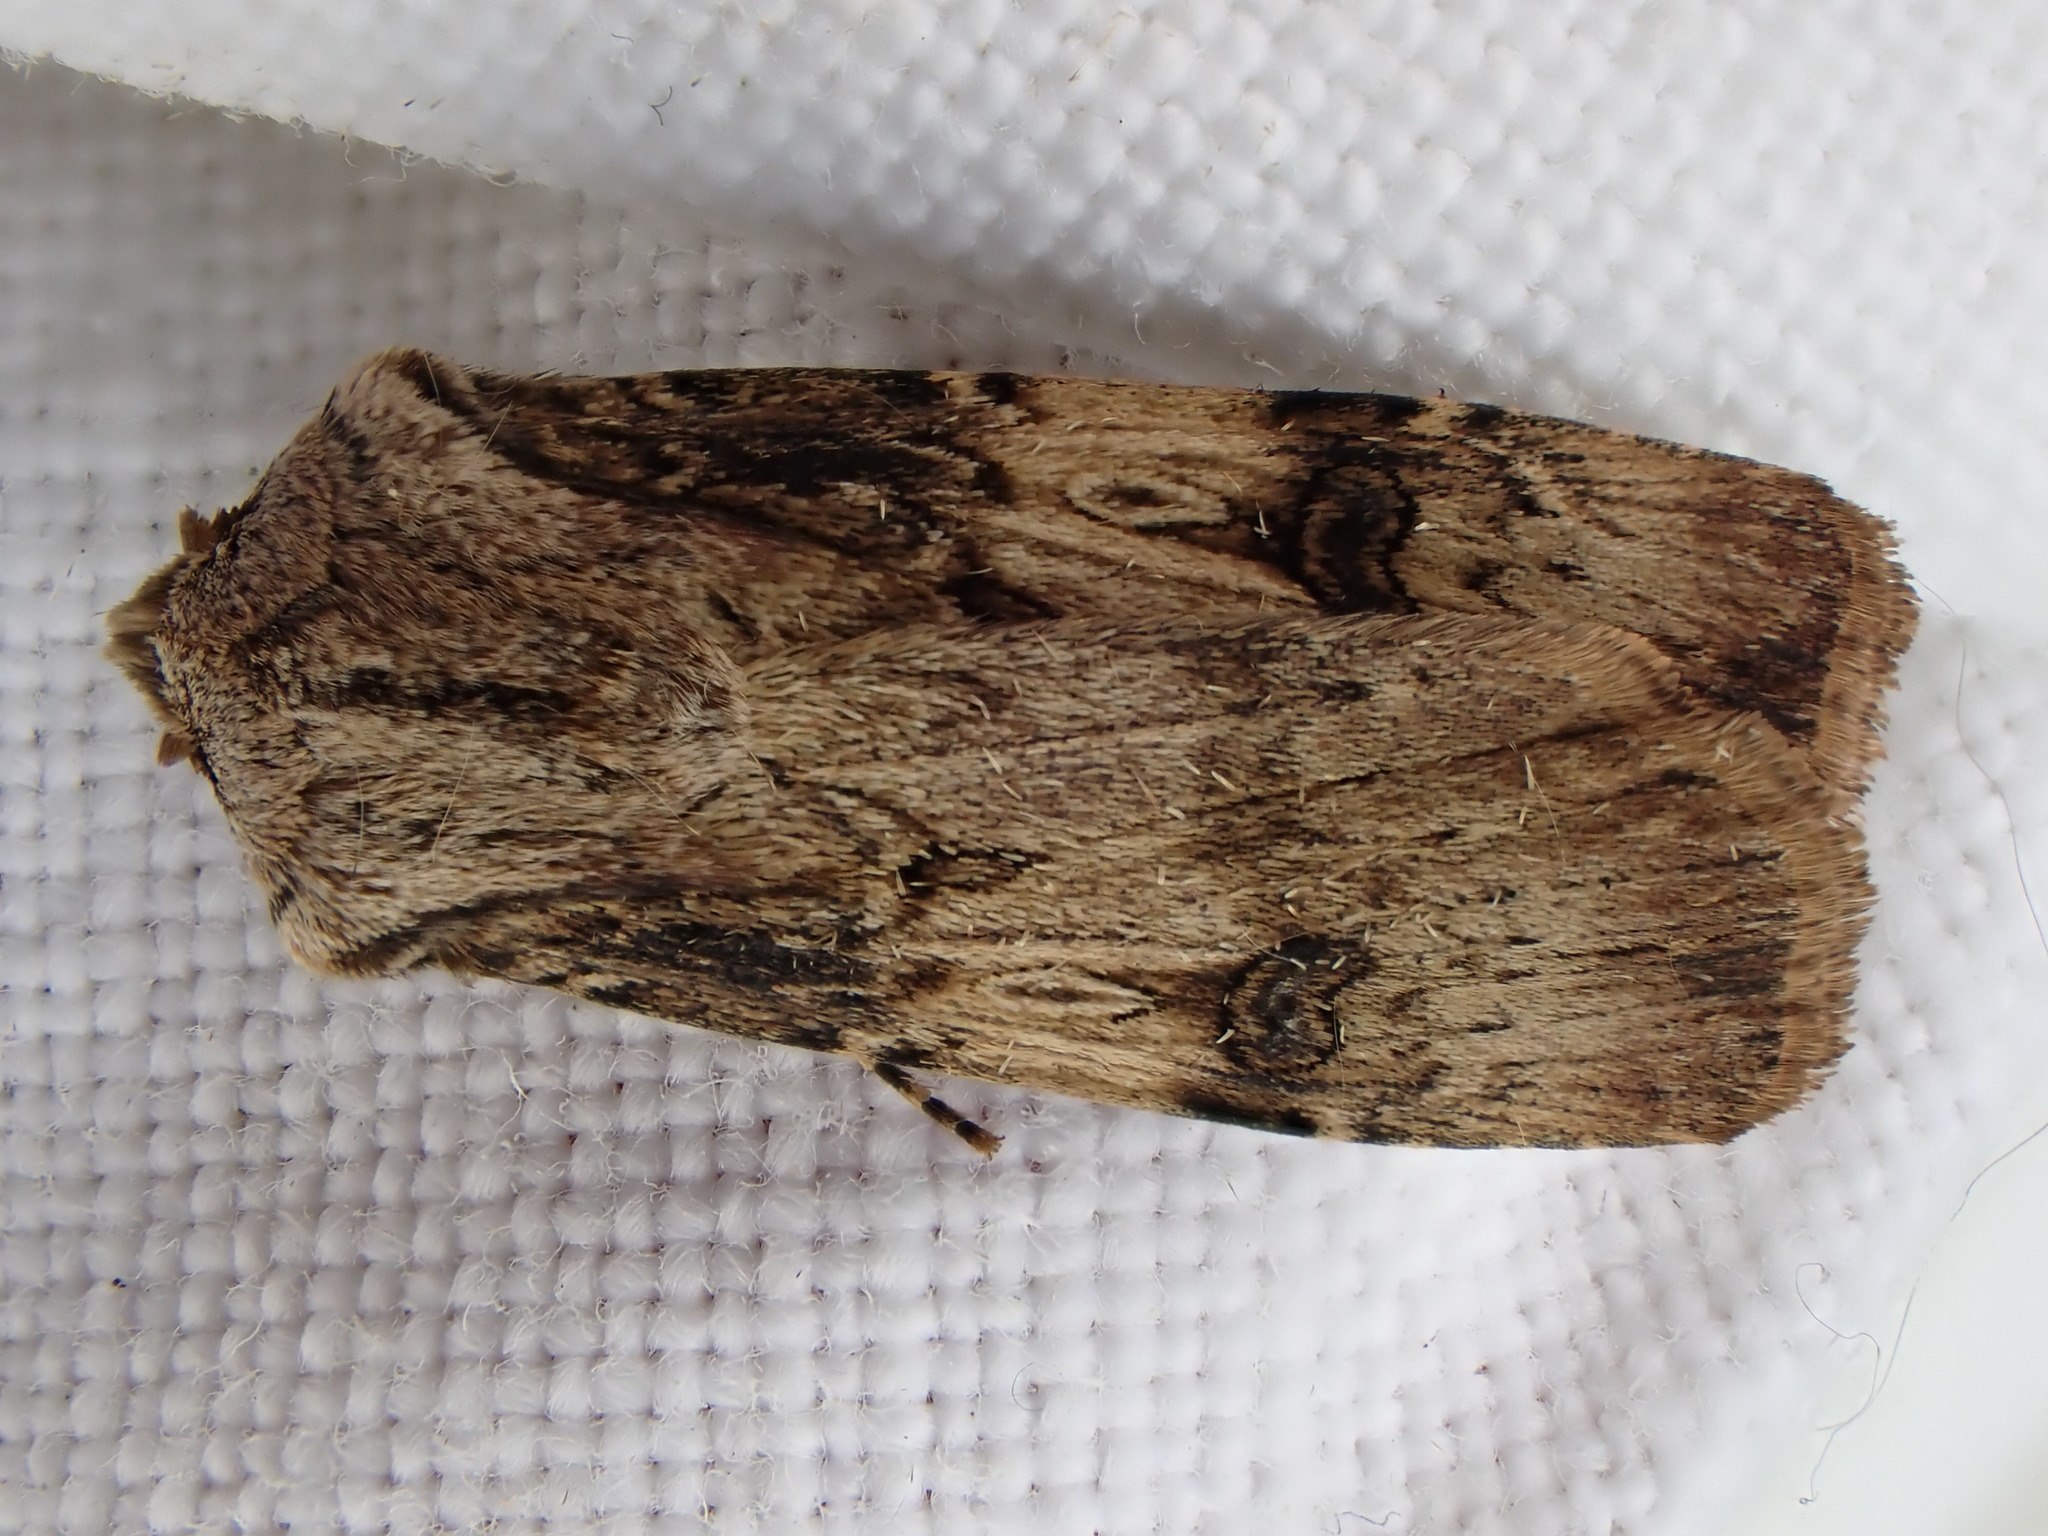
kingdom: Animalia
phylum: Arthropoda
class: Insecta
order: Lepidoptera
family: Noctuidae
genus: Agrotis
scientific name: Agrotis puta
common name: Shuttle-shaped dart
